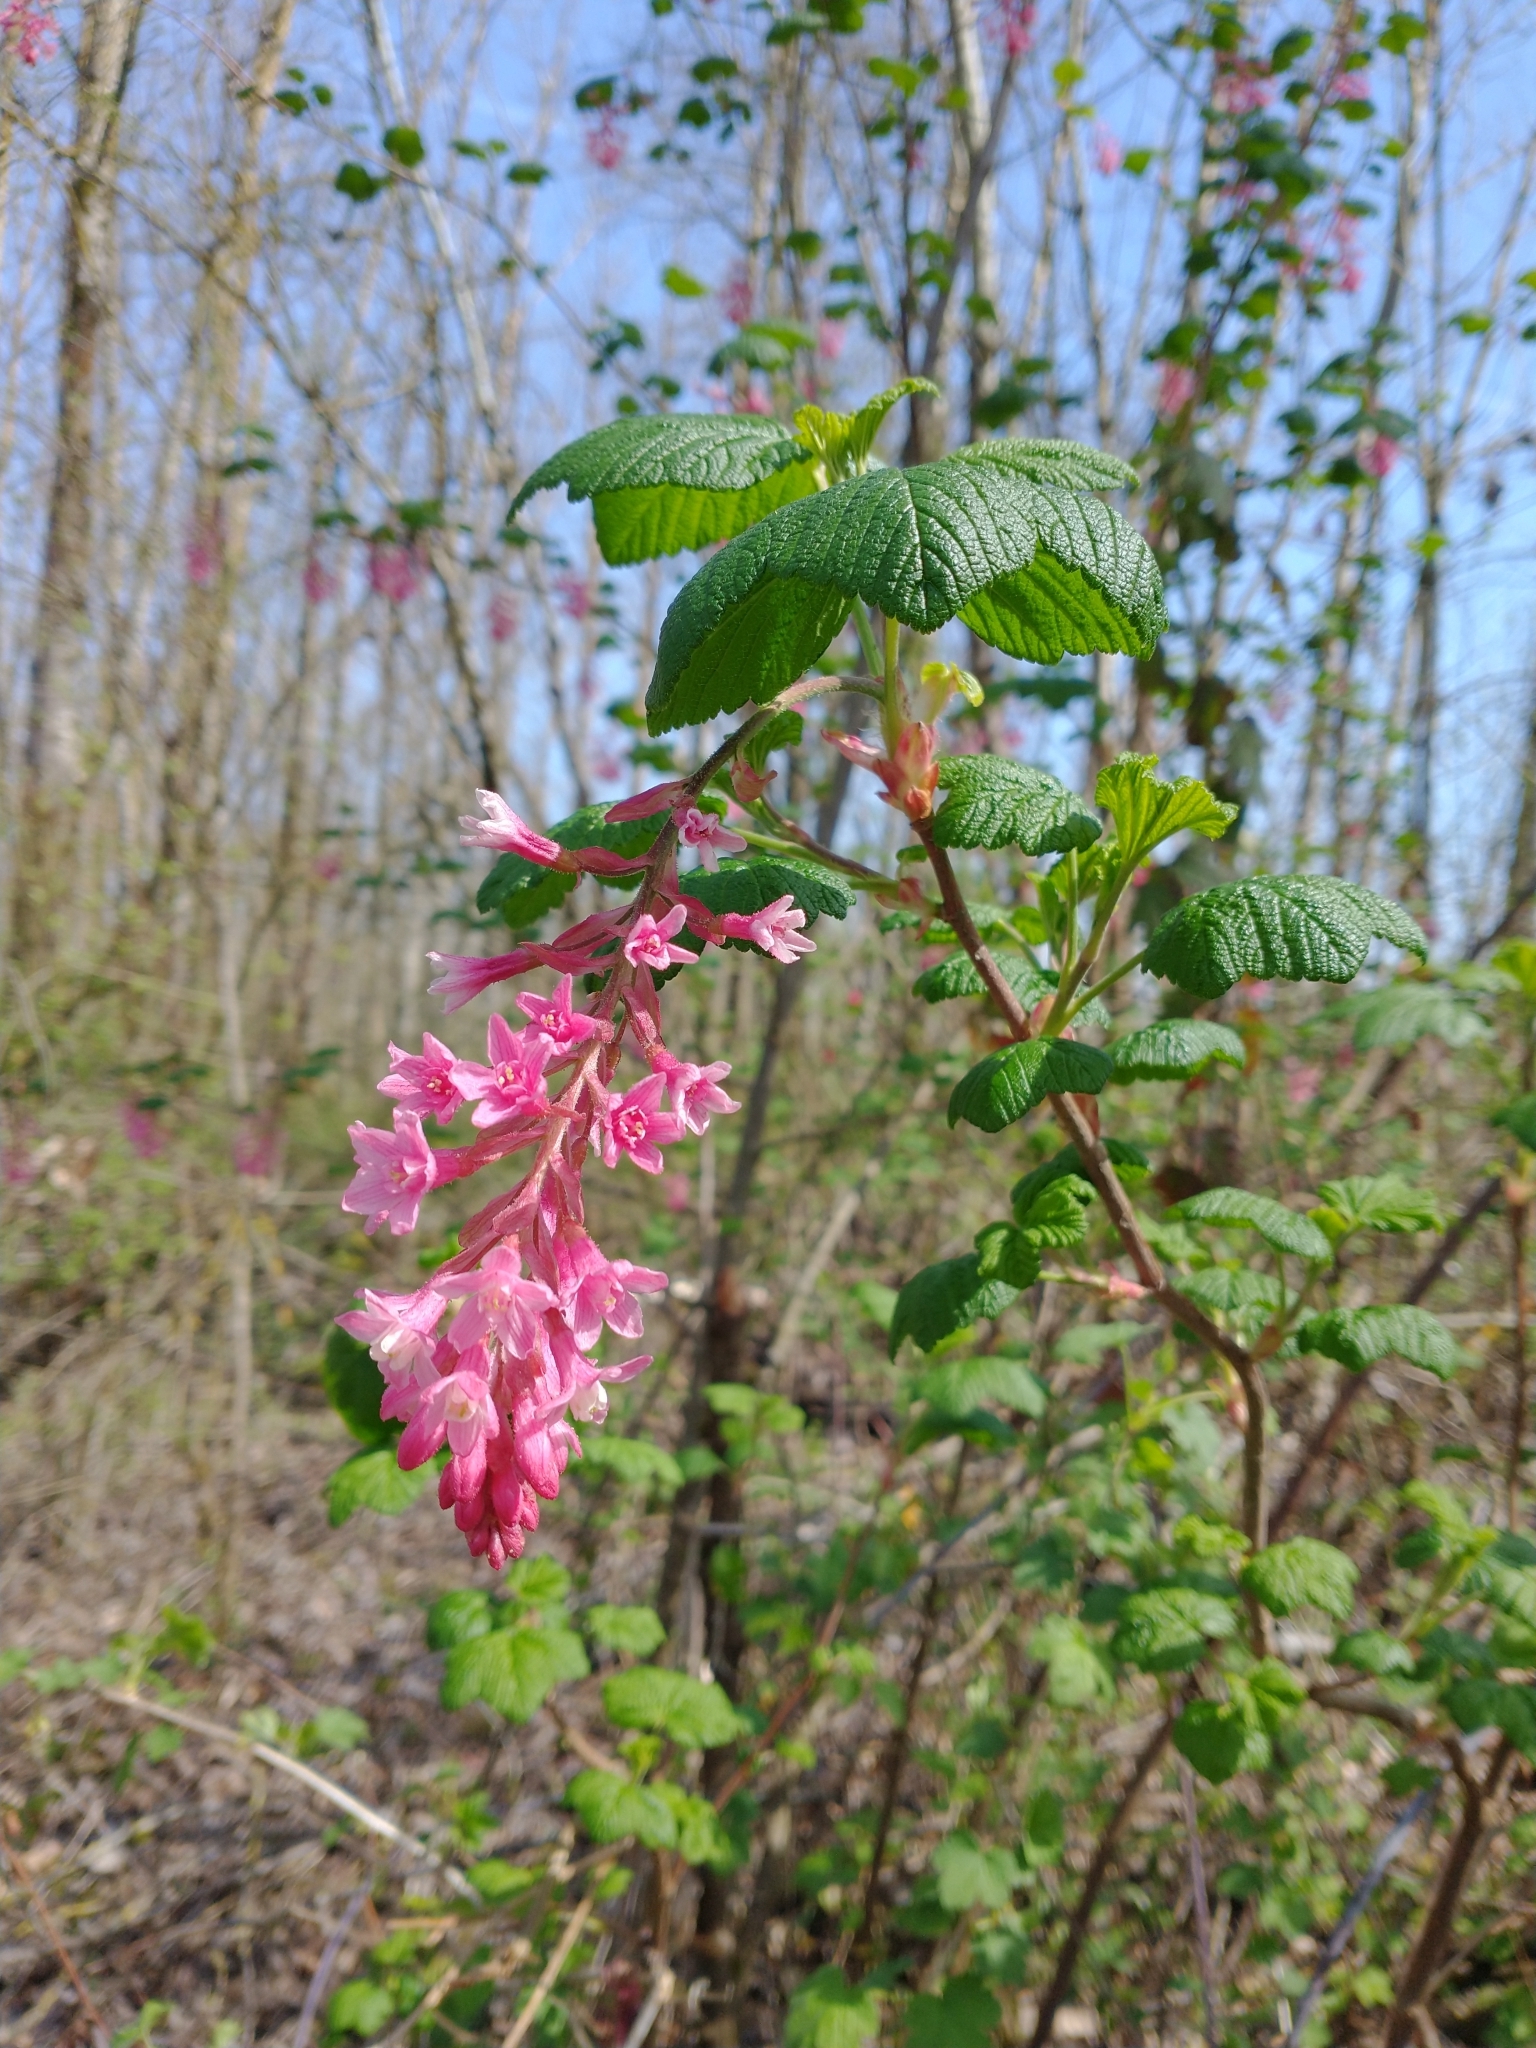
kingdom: Plantae
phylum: Tracheophyta
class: Magnoliopsida
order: Saxifragales
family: Grossulariaceae
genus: Ribes
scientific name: Ribes sanguineum
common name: Flowering currant
